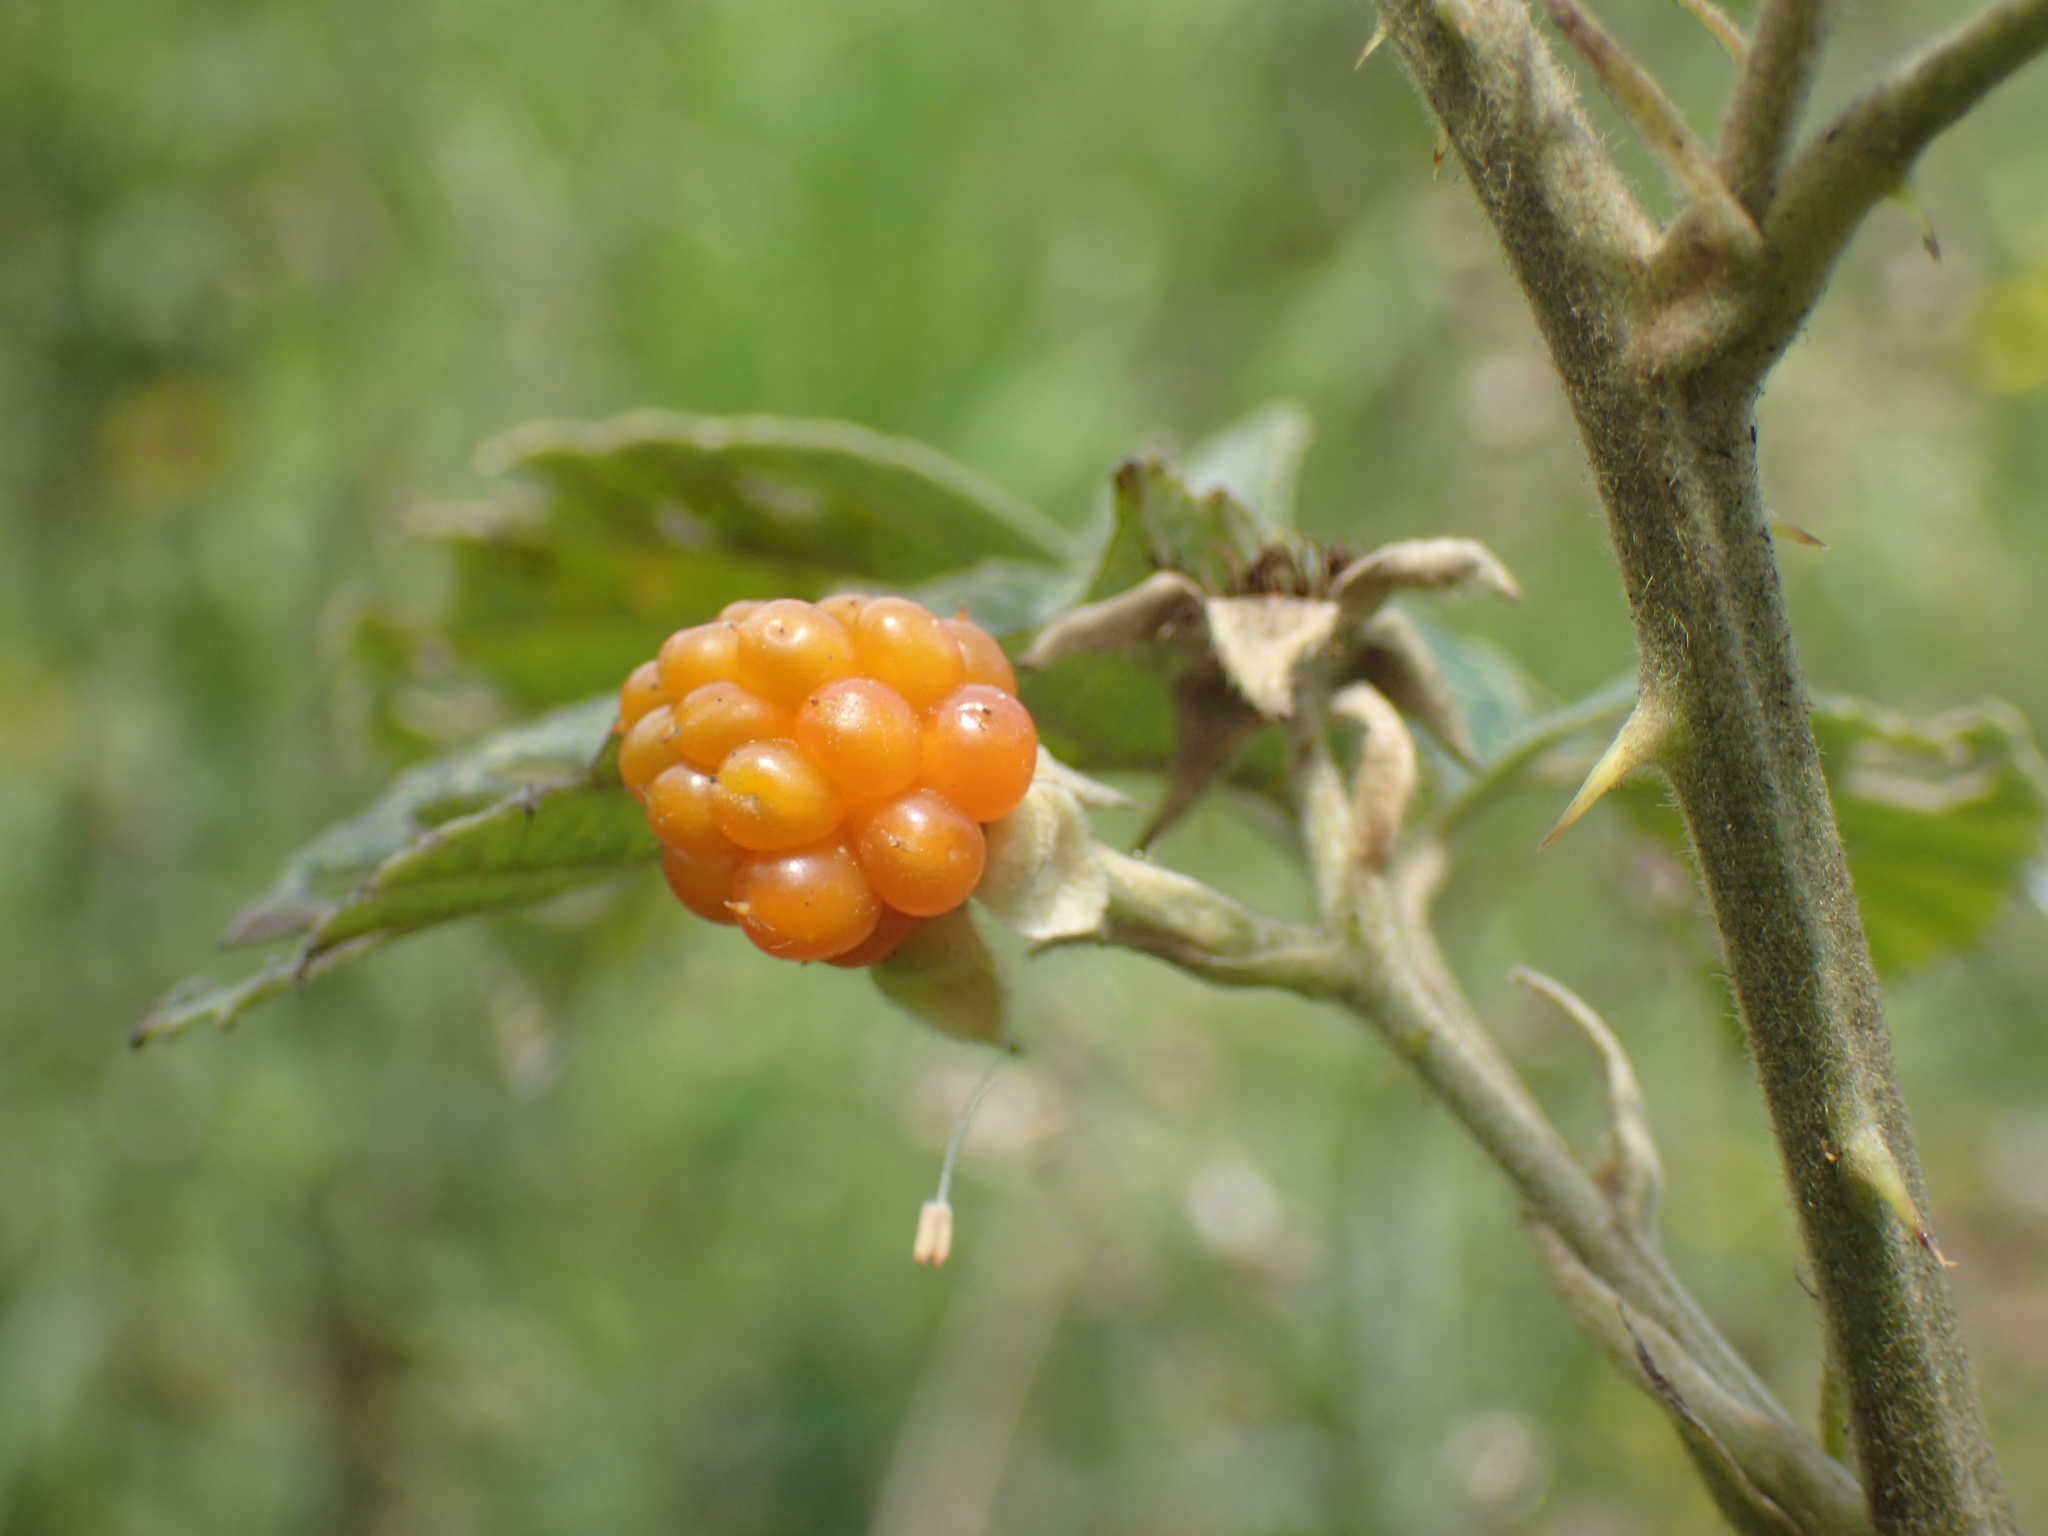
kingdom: Plantae
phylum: Tracheophyta
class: Magnoliopsida
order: Rosales
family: Rosaceae
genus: Rubus
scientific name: Rubus rigidus
